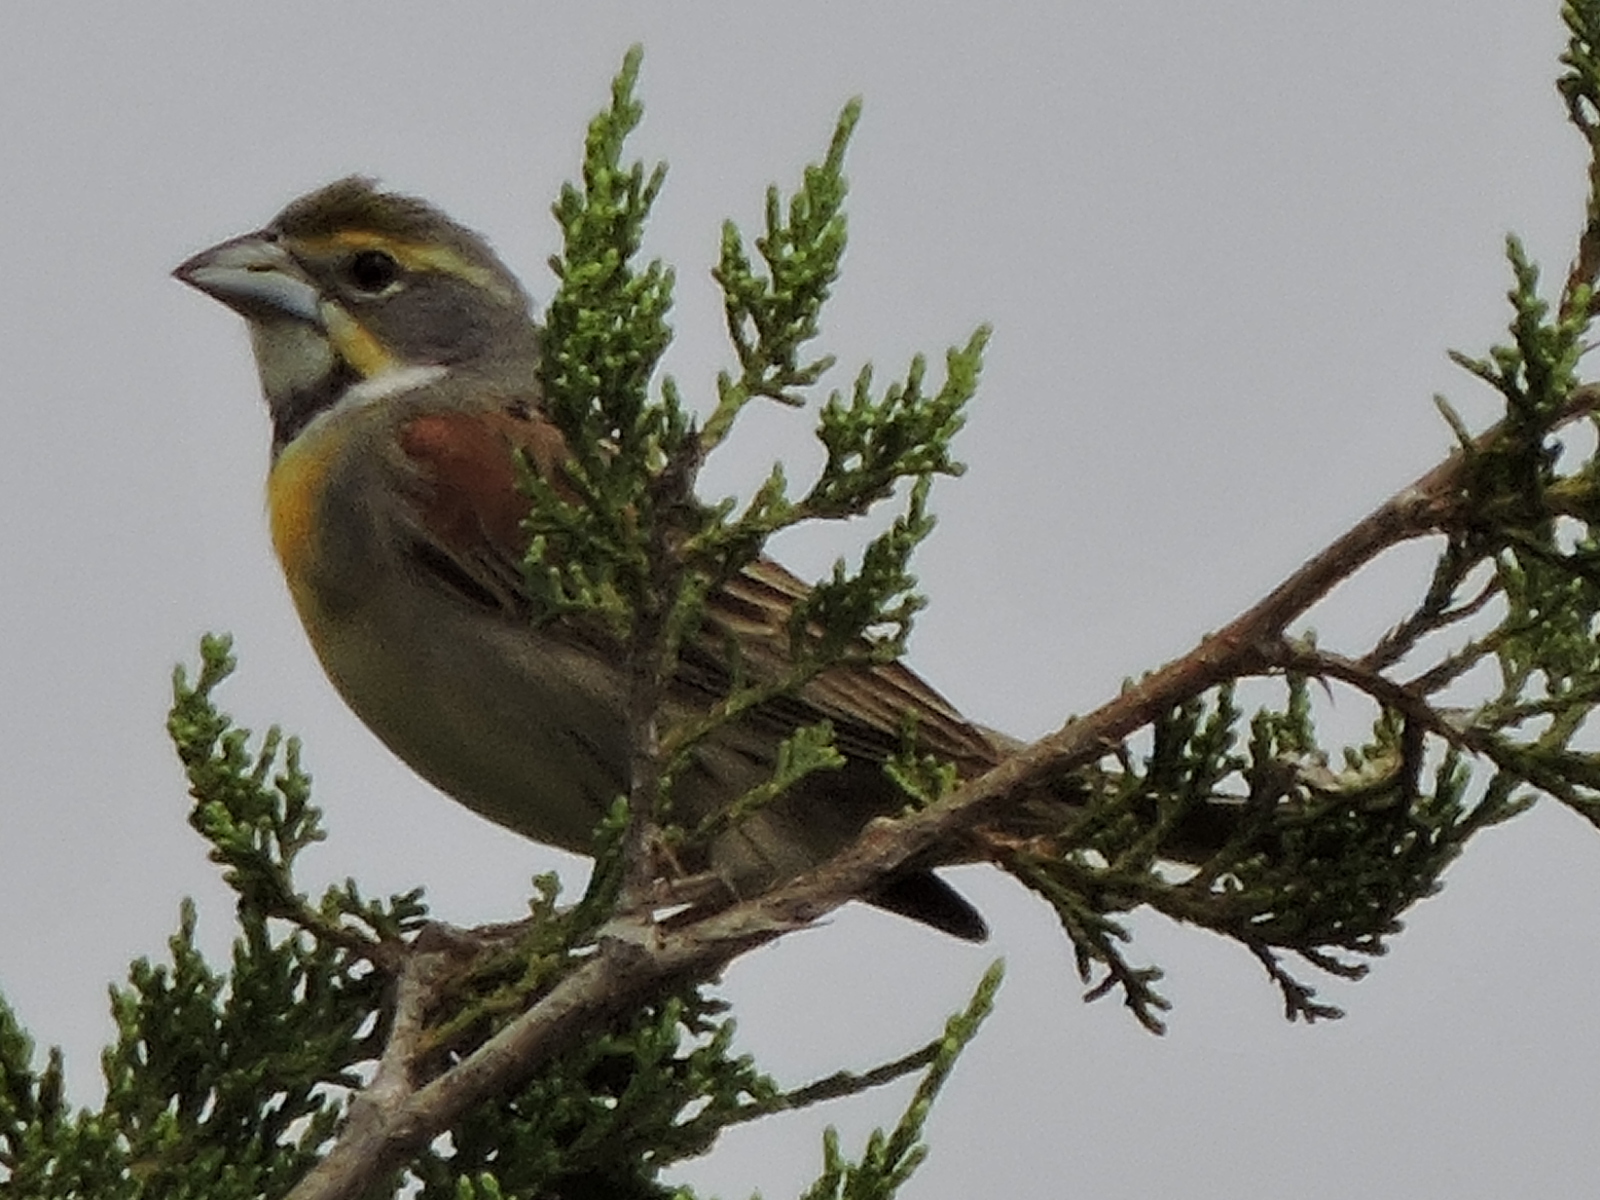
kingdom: Animalia
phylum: Chordata
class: Aves
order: Passeriformes
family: Cardinalidae
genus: Spiza
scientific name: Spiza americana
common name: Dickcissel
